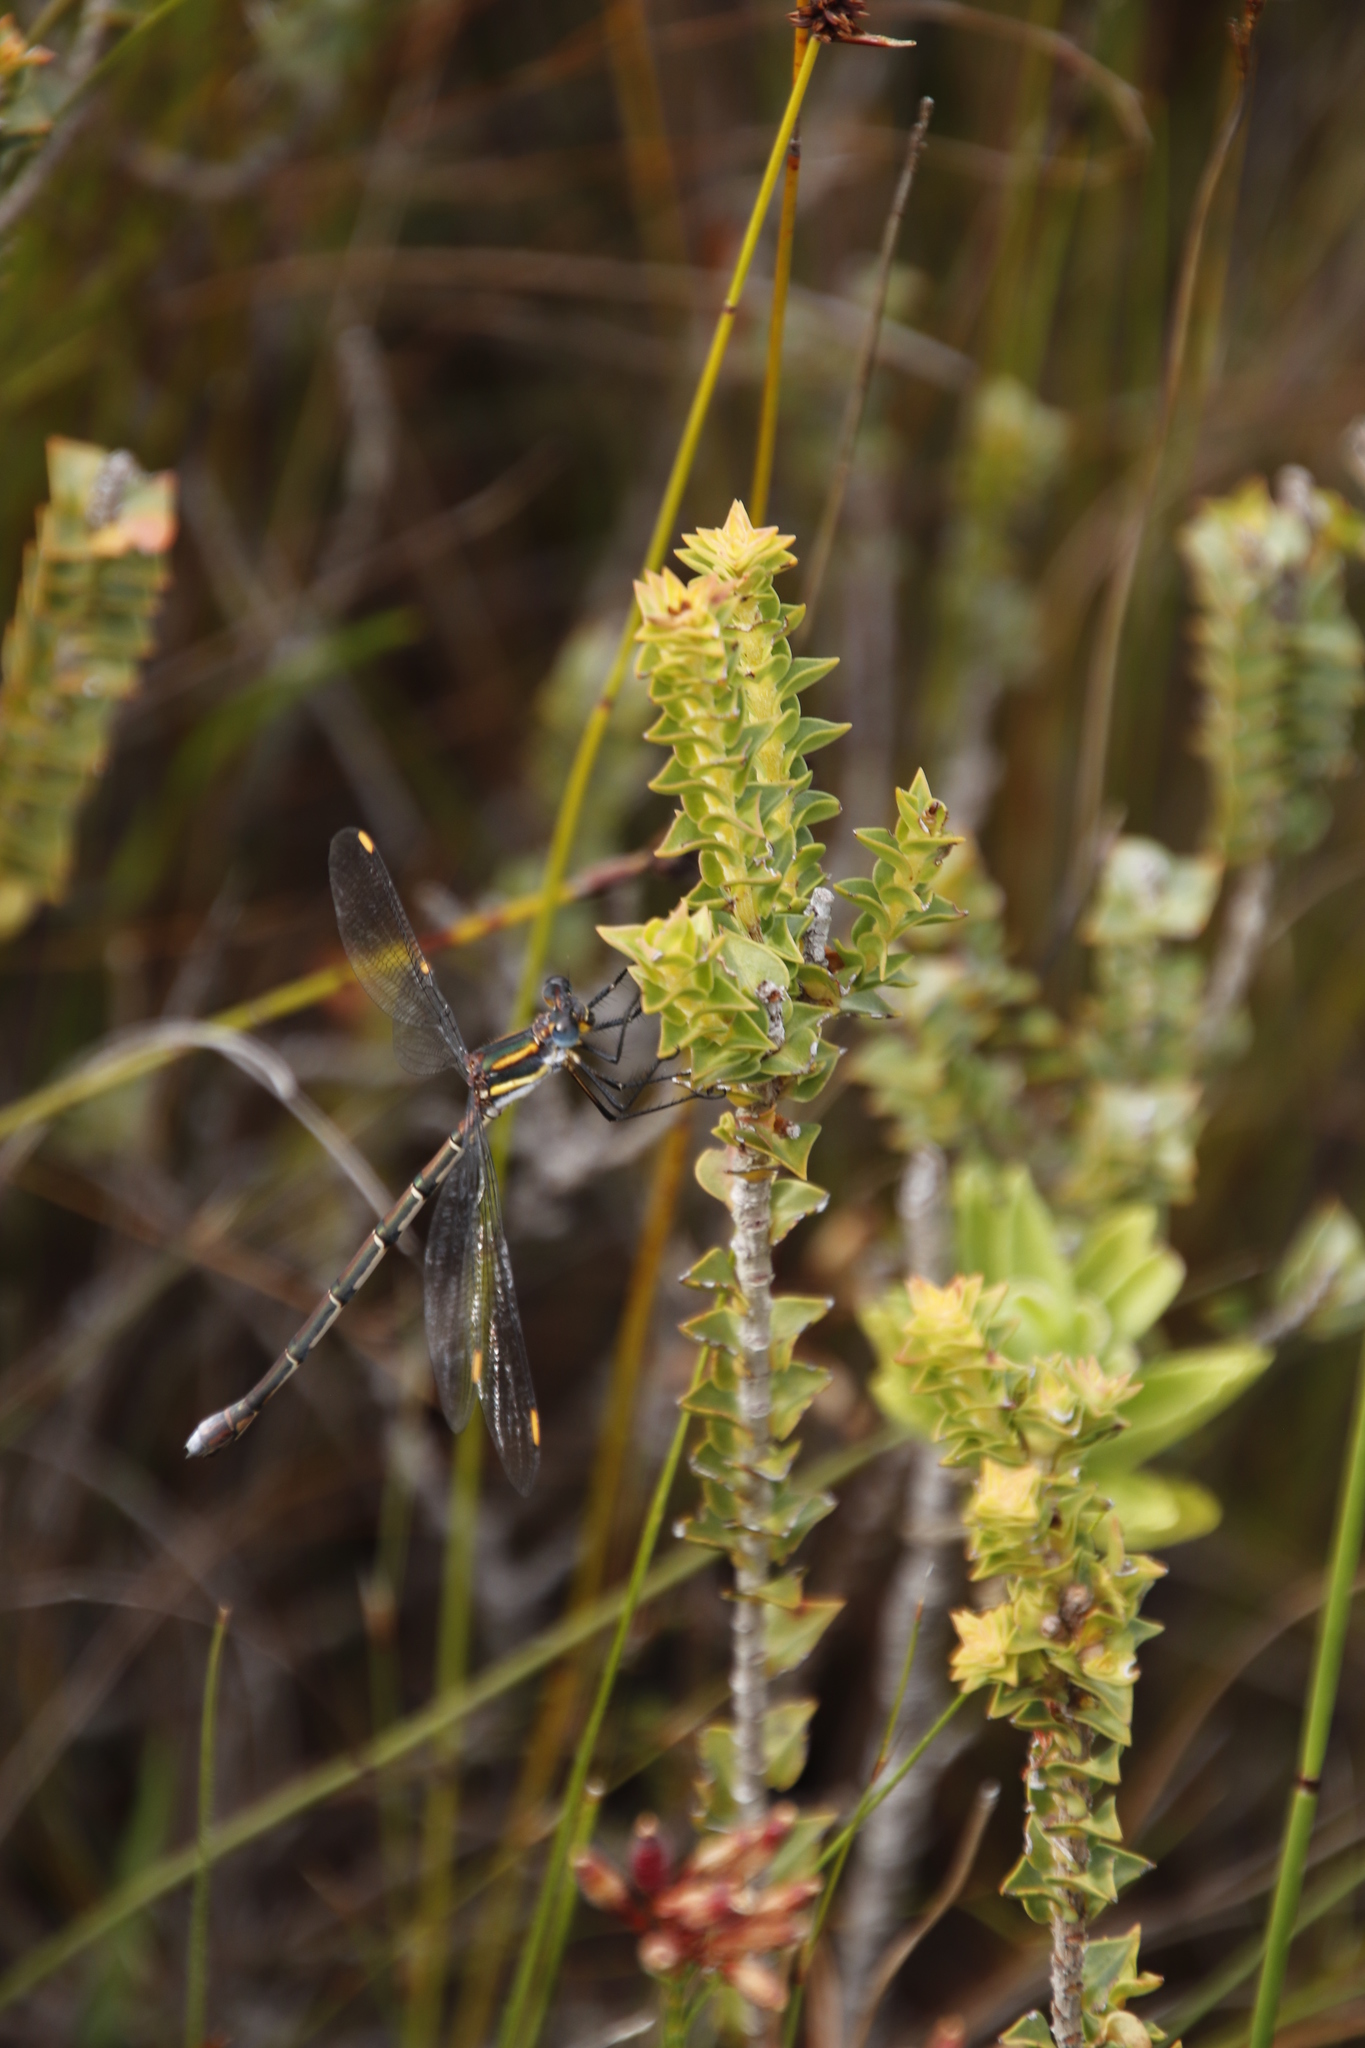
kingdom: Plantae
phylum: Tracheophyta
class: Magnoliopsida
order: Myrtales
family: Penaeaceae
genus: Penaea
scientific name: Penaea cneorum
